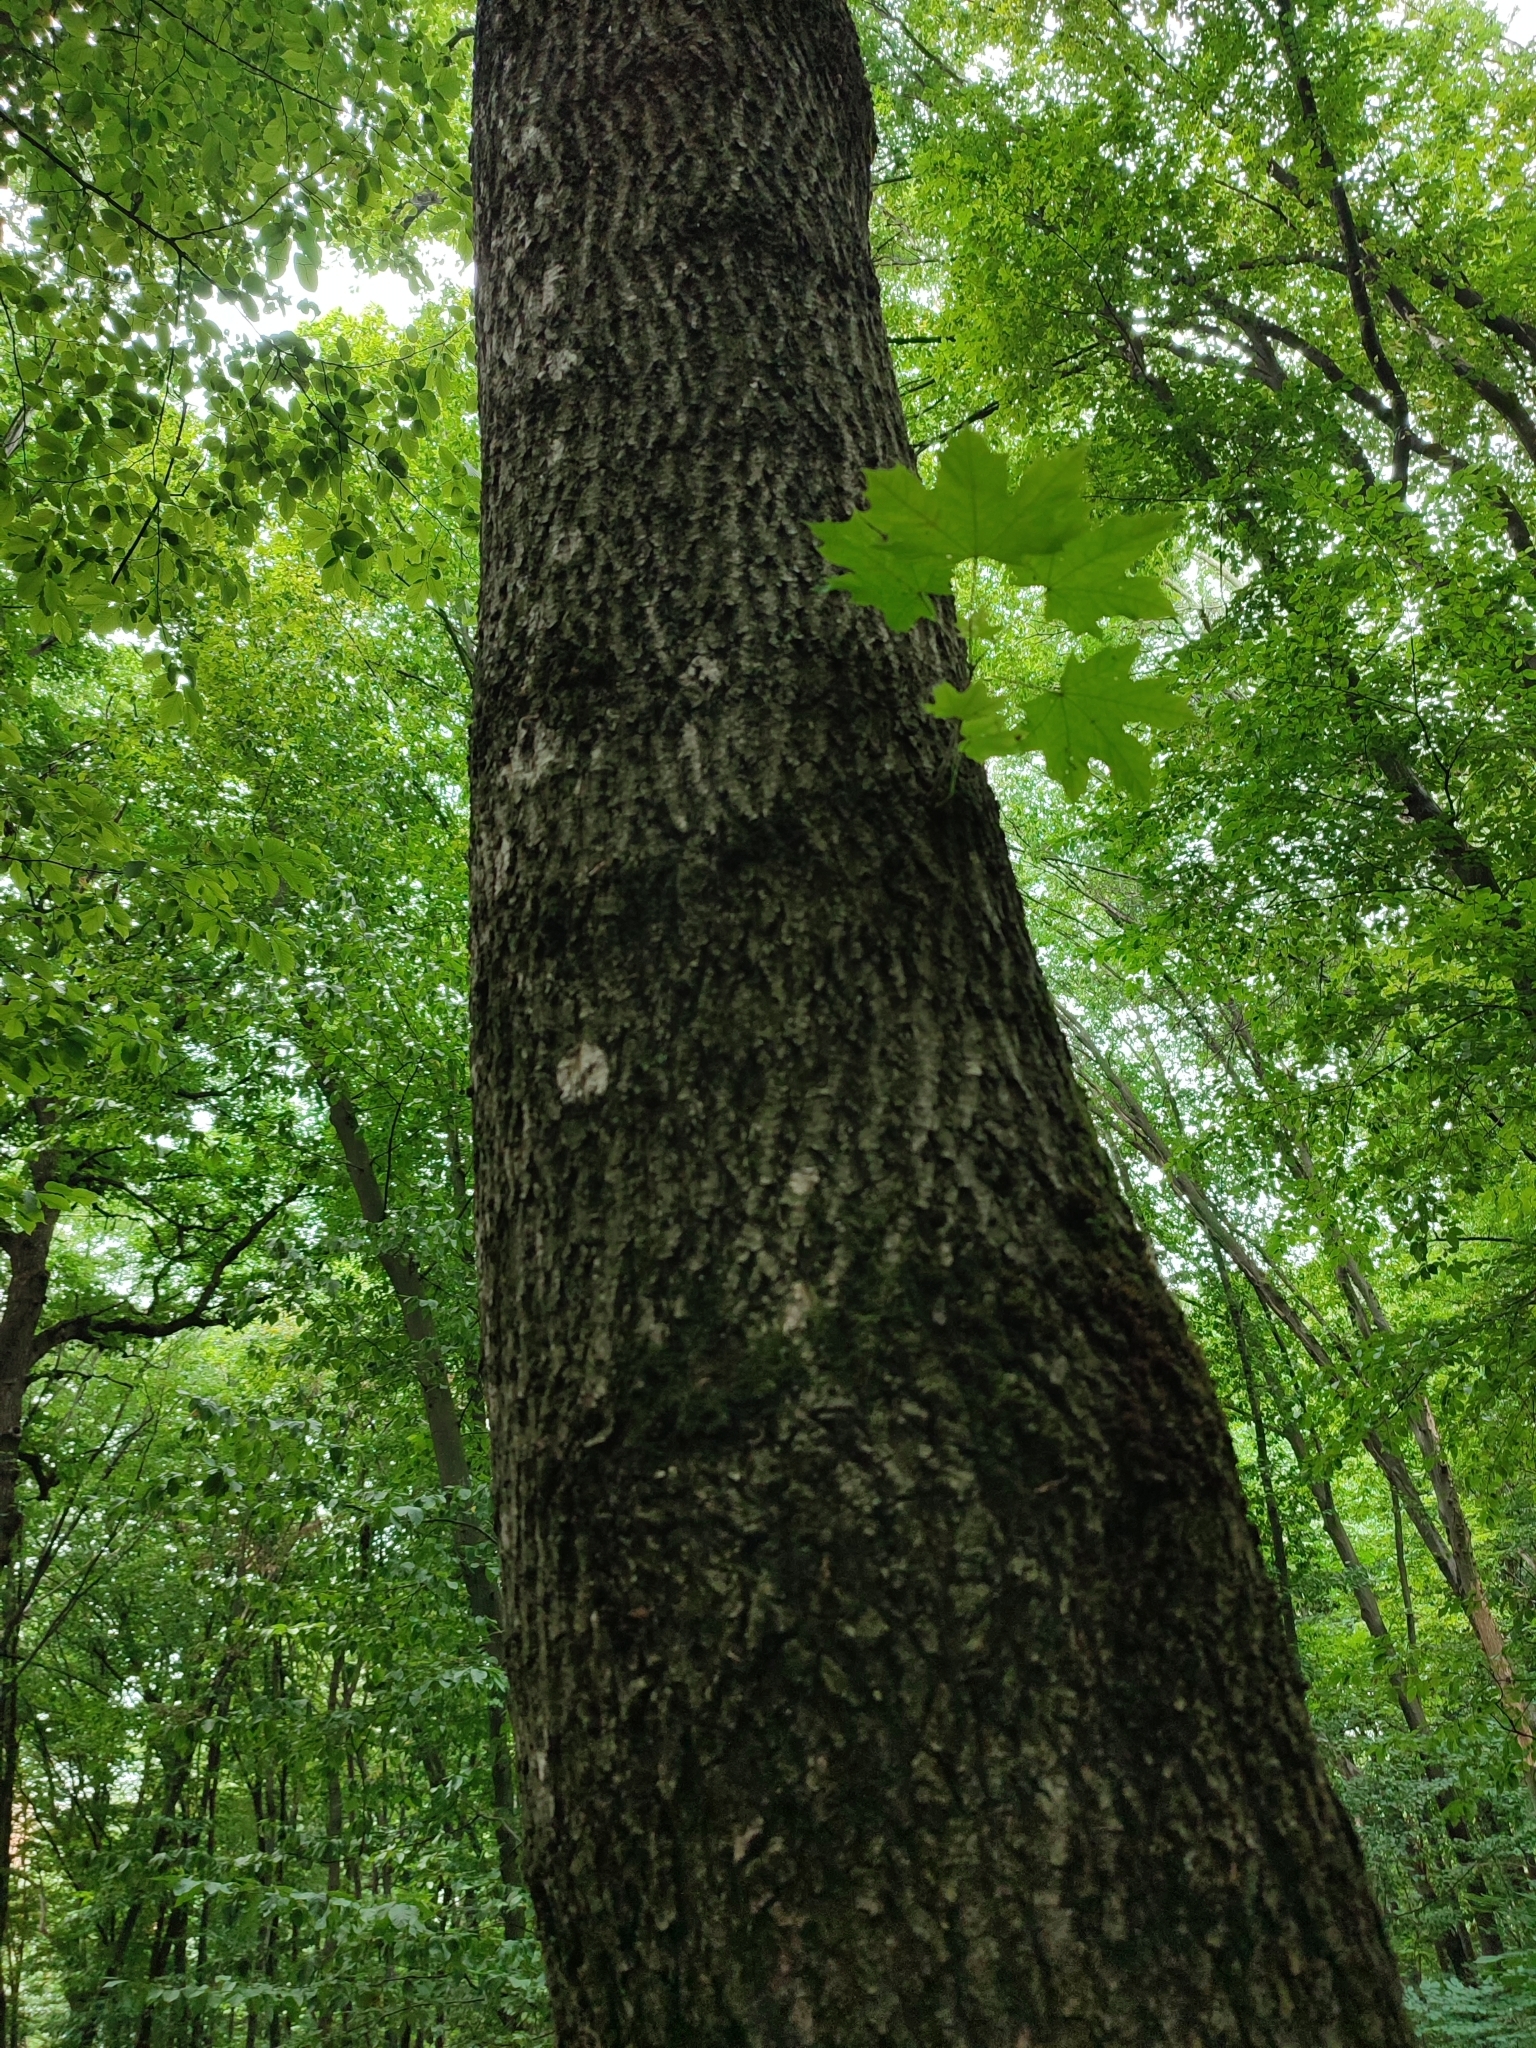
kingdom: Plantae
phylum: Tracheophyta
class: Magnoliopsida
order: Sapindales
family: Sapindaceae
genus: Acer
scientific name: Acer platanoides
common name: Norway maple
